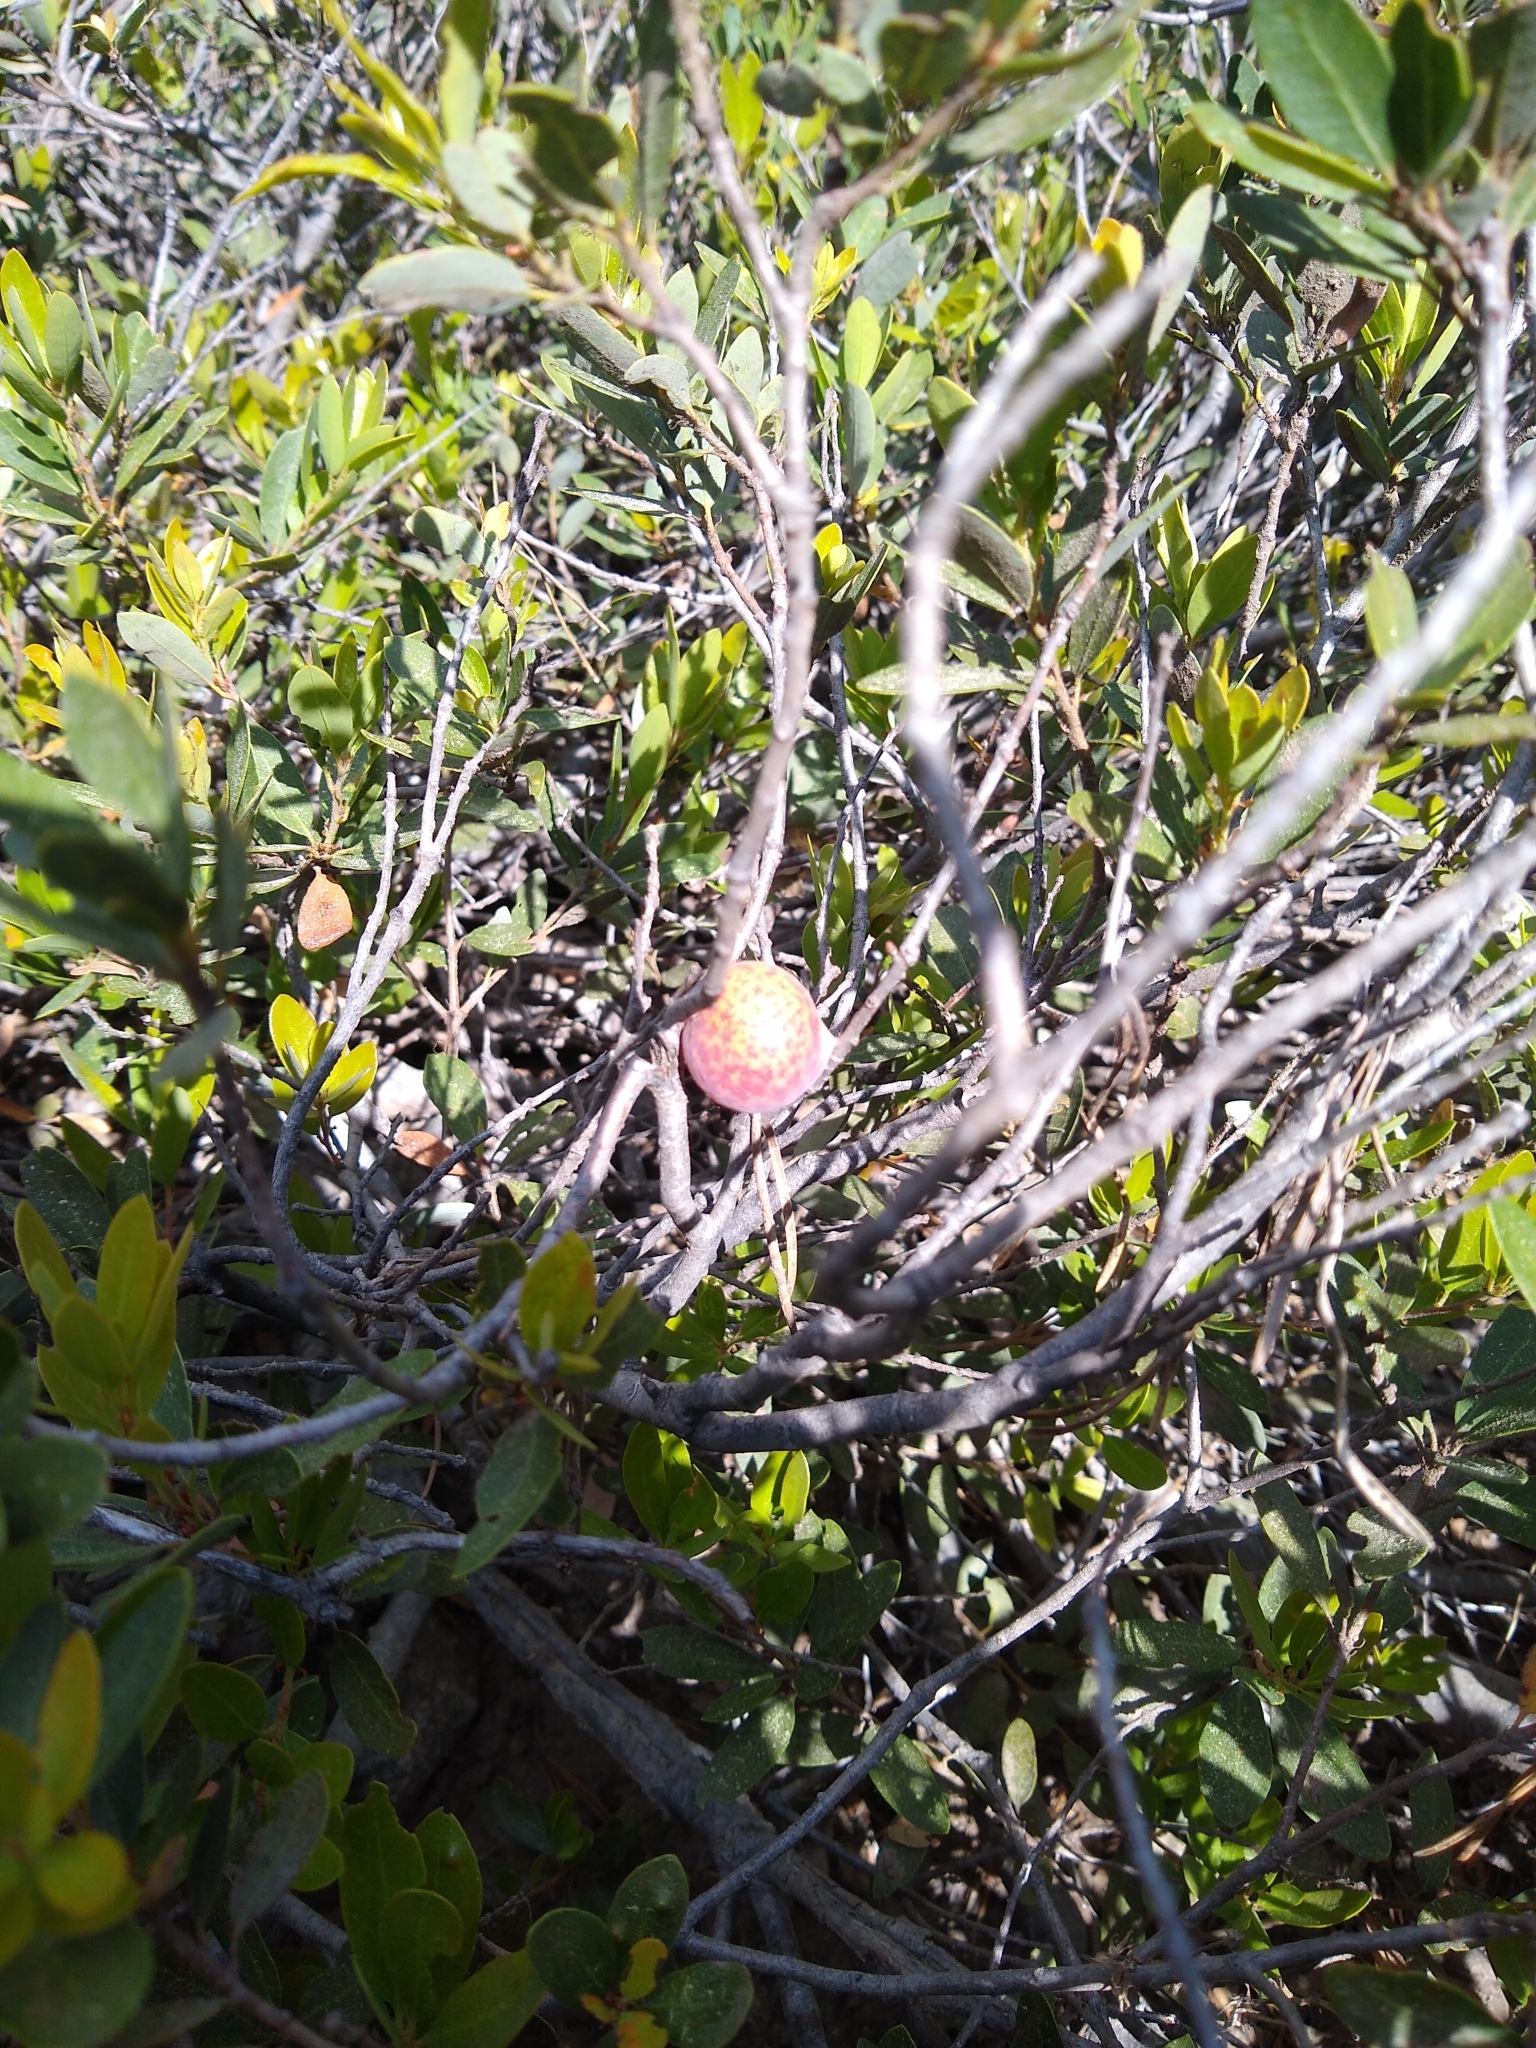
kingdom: Animalia
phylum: Arthropoda
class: Insecta
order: Hymenoptera
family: Cynipidae
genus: Andricus
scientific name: Andricus
